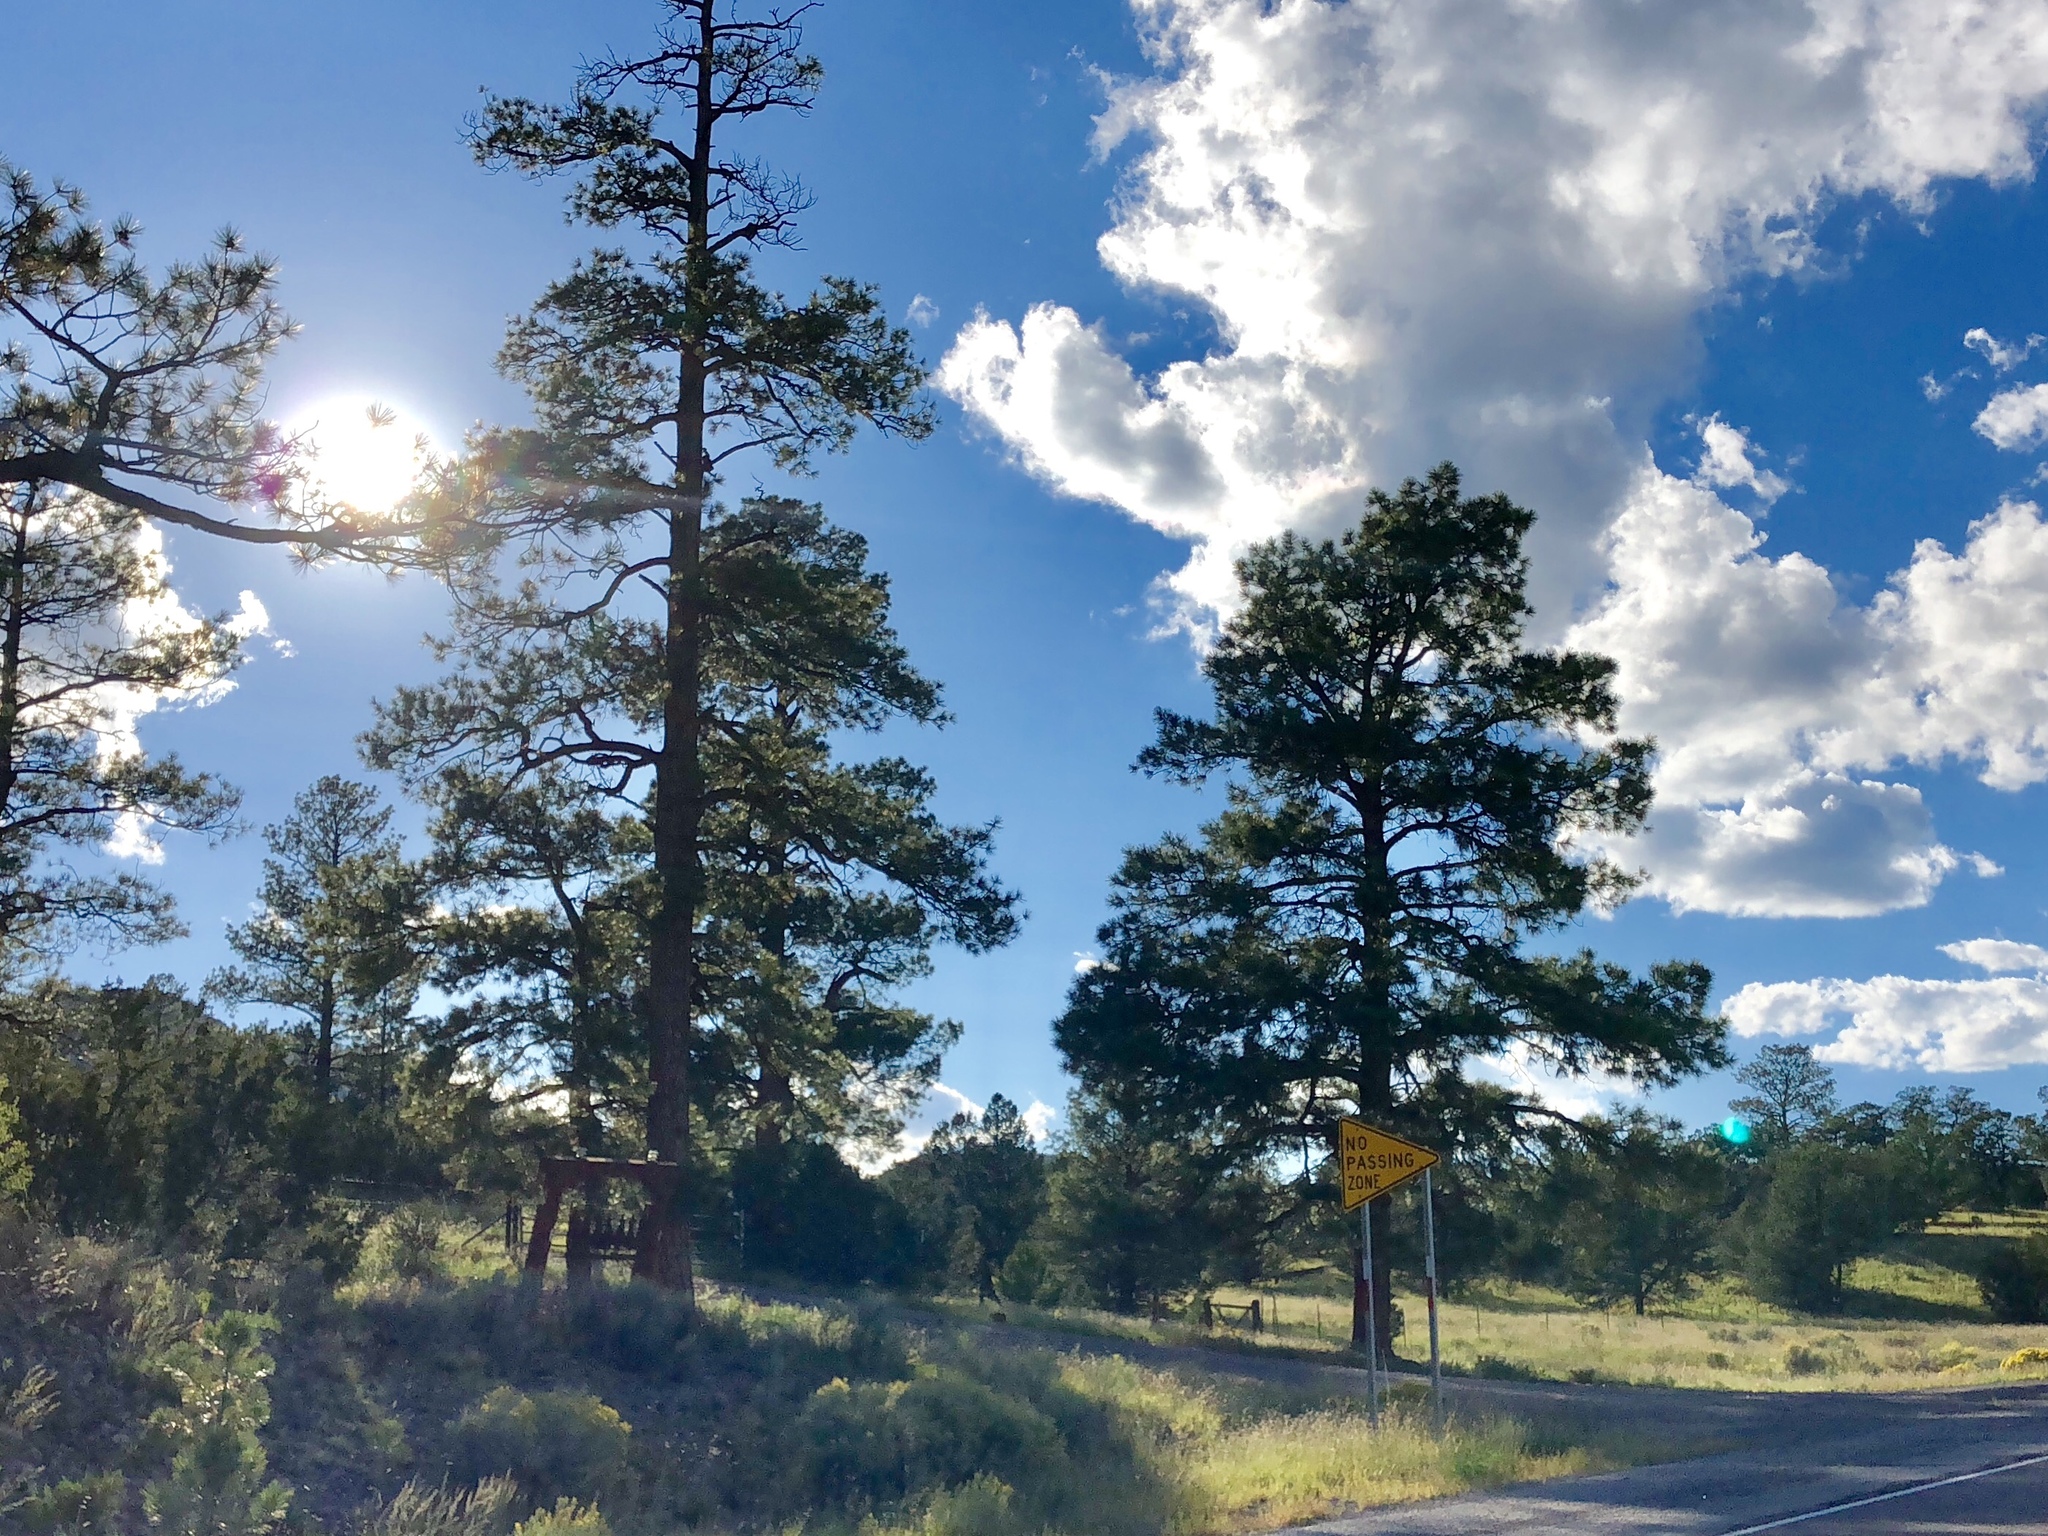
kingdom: Plantae
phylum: Tracheophyta
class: Pinopsida
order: Pinales
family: Pinaceae
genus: Pinus
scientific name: Pinus ponderosa
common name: Western yellow-pine
